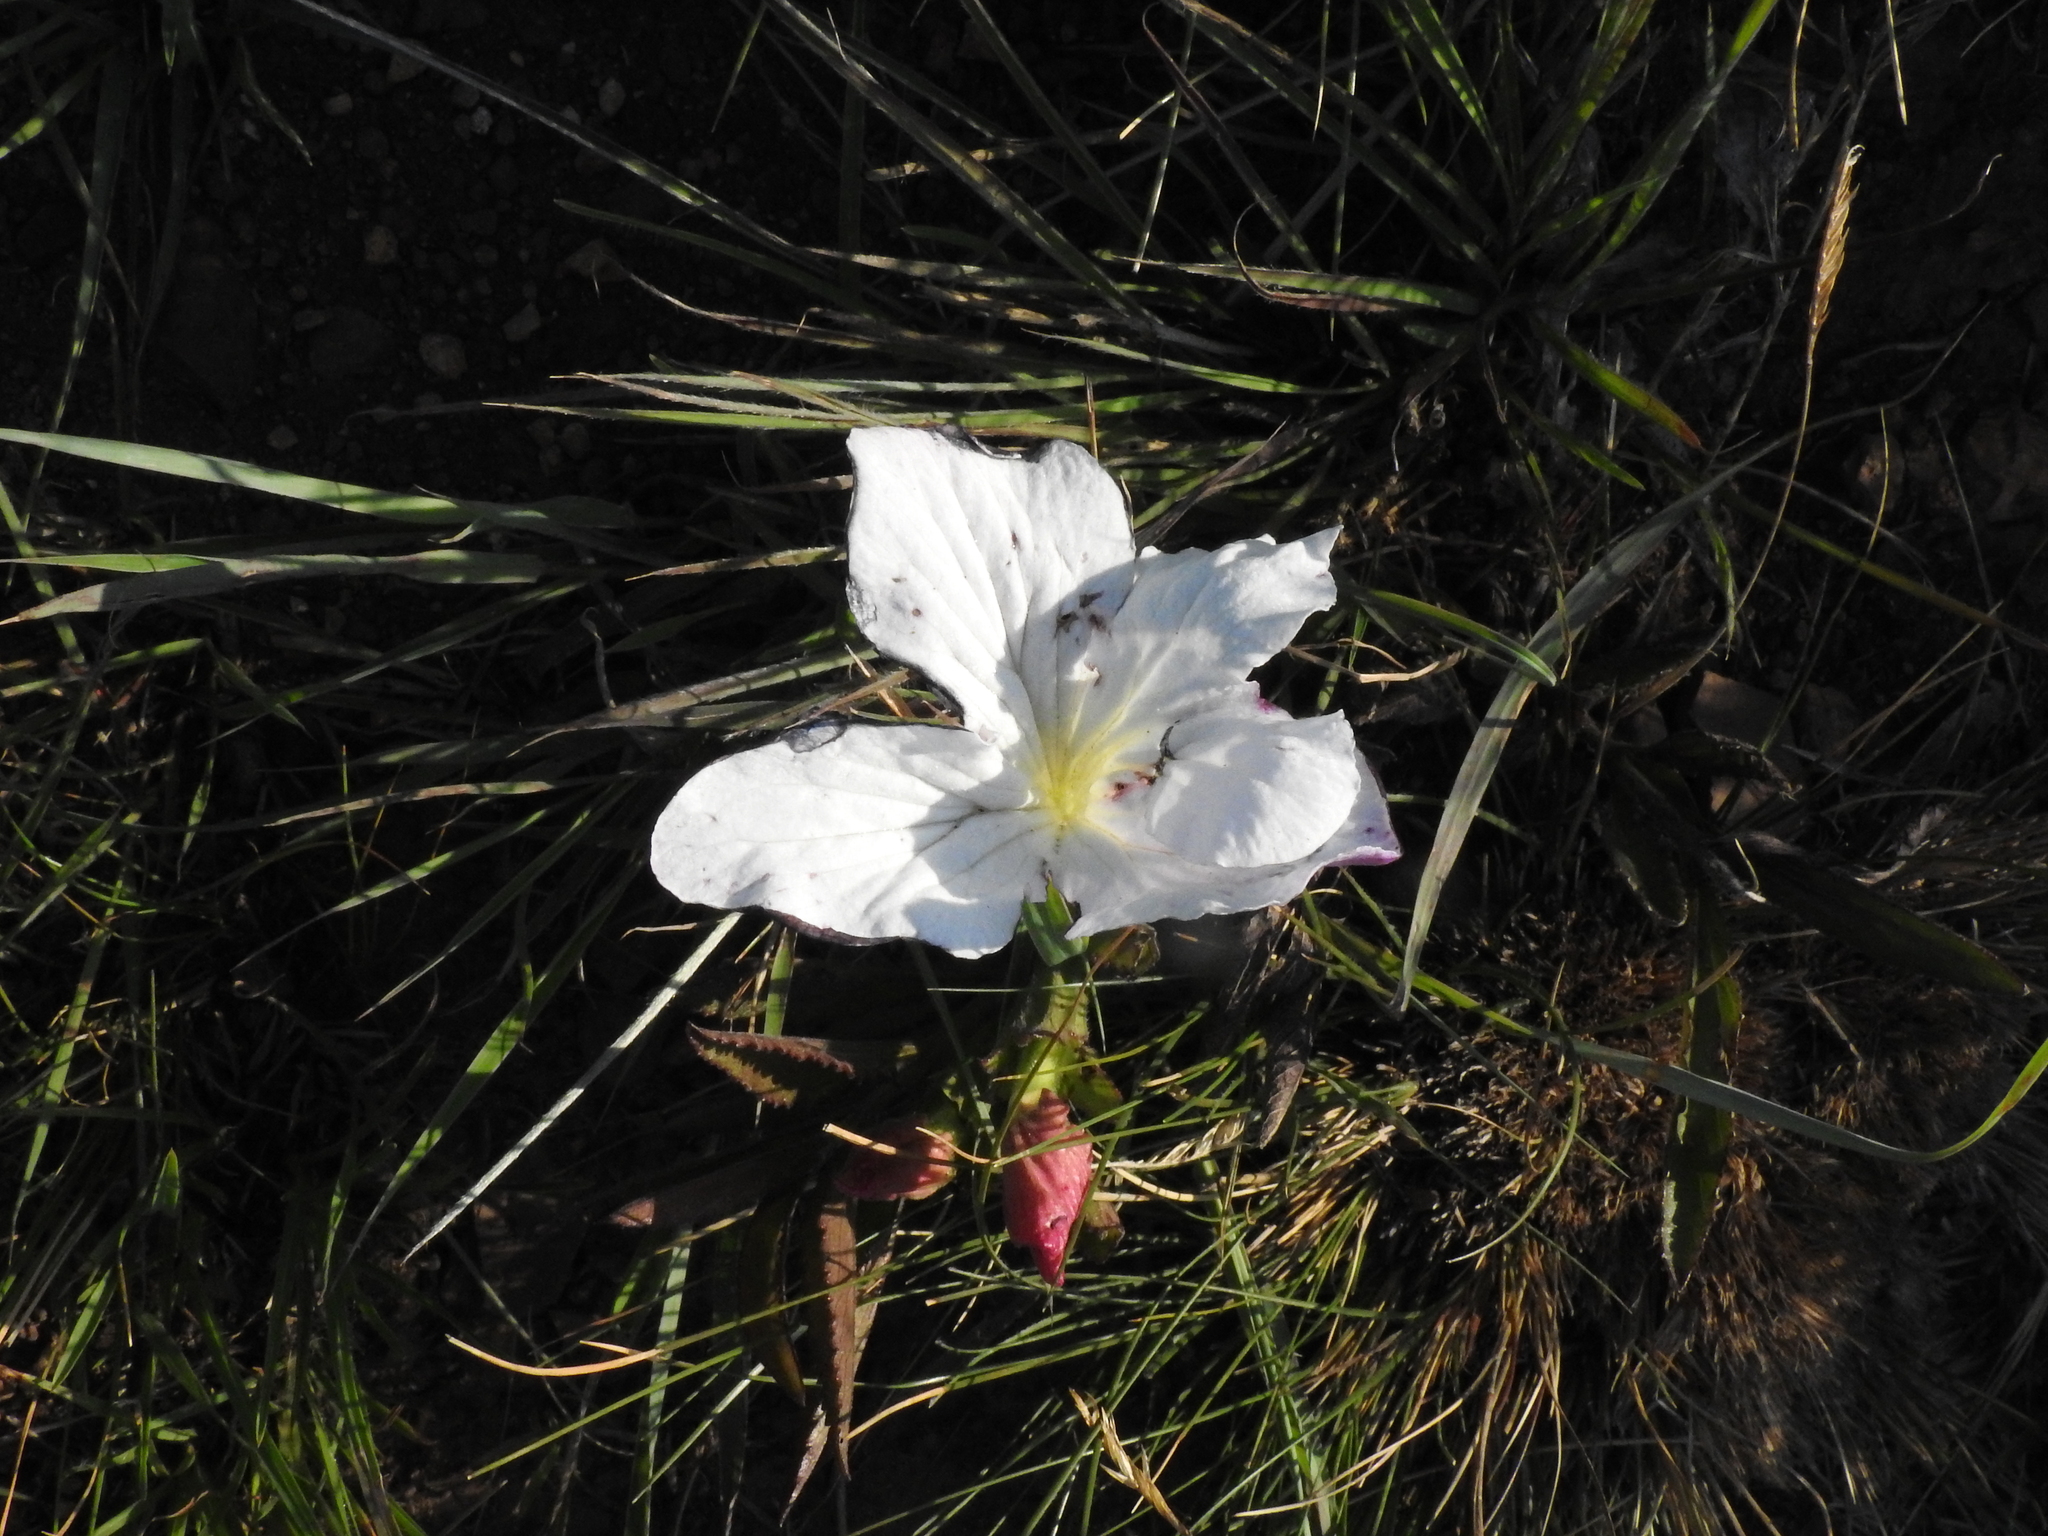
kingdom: Plantae
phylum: Tracheophyta
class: Magnoliopsida
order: Lamiales
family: Orobanchaceae
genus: Cycnium
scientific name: Cycnium adonense
